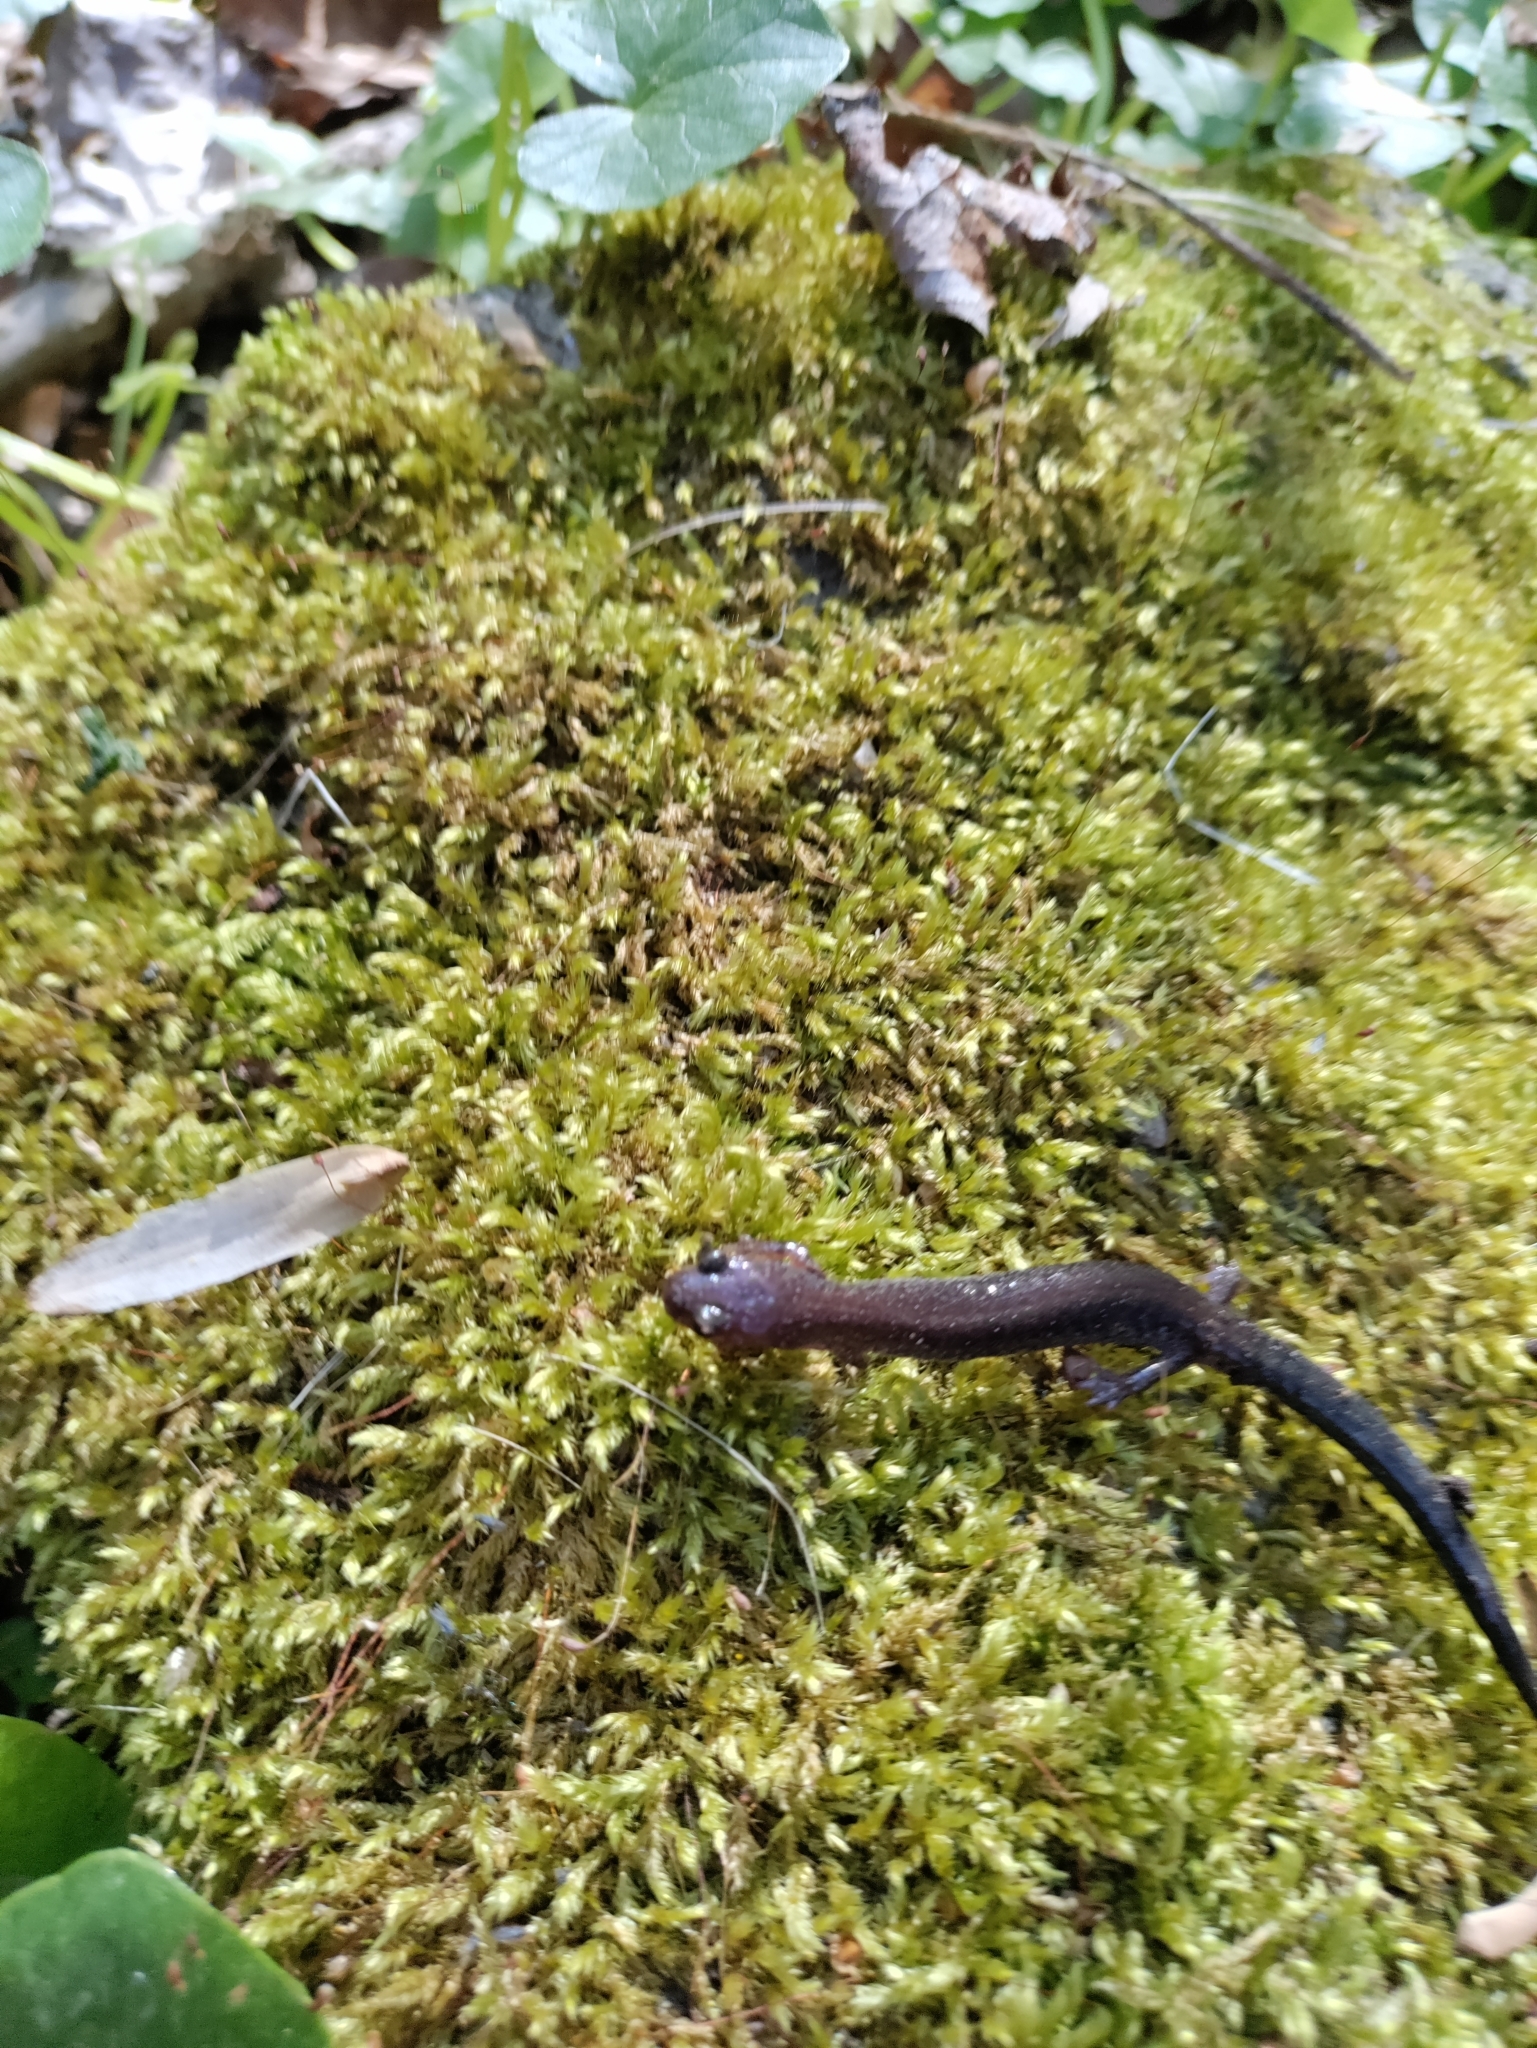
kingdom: Animalia
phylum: Chordata
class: Amphibia
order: Caudata
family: Plethodontidae
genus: Plethodon
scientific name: Plethodon cinereus
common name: Redback salamander
